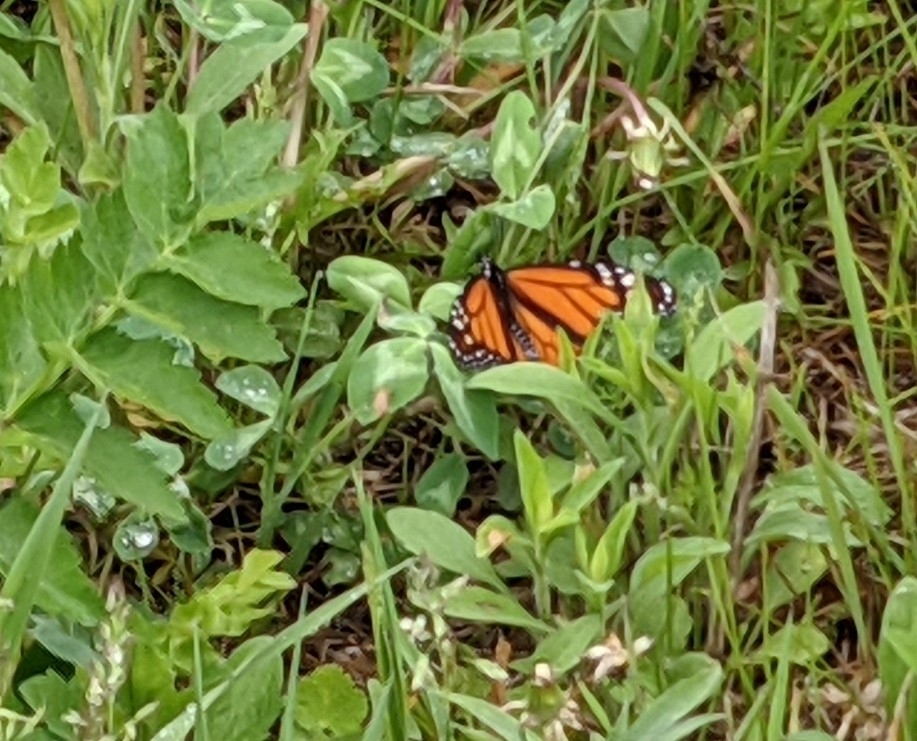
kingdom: Animalia
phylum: Arthropoda
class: Insecta
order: Lepidoptera
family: Nymphalidae
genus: Danaus
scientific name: Danaus plexippus
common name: Monarch
